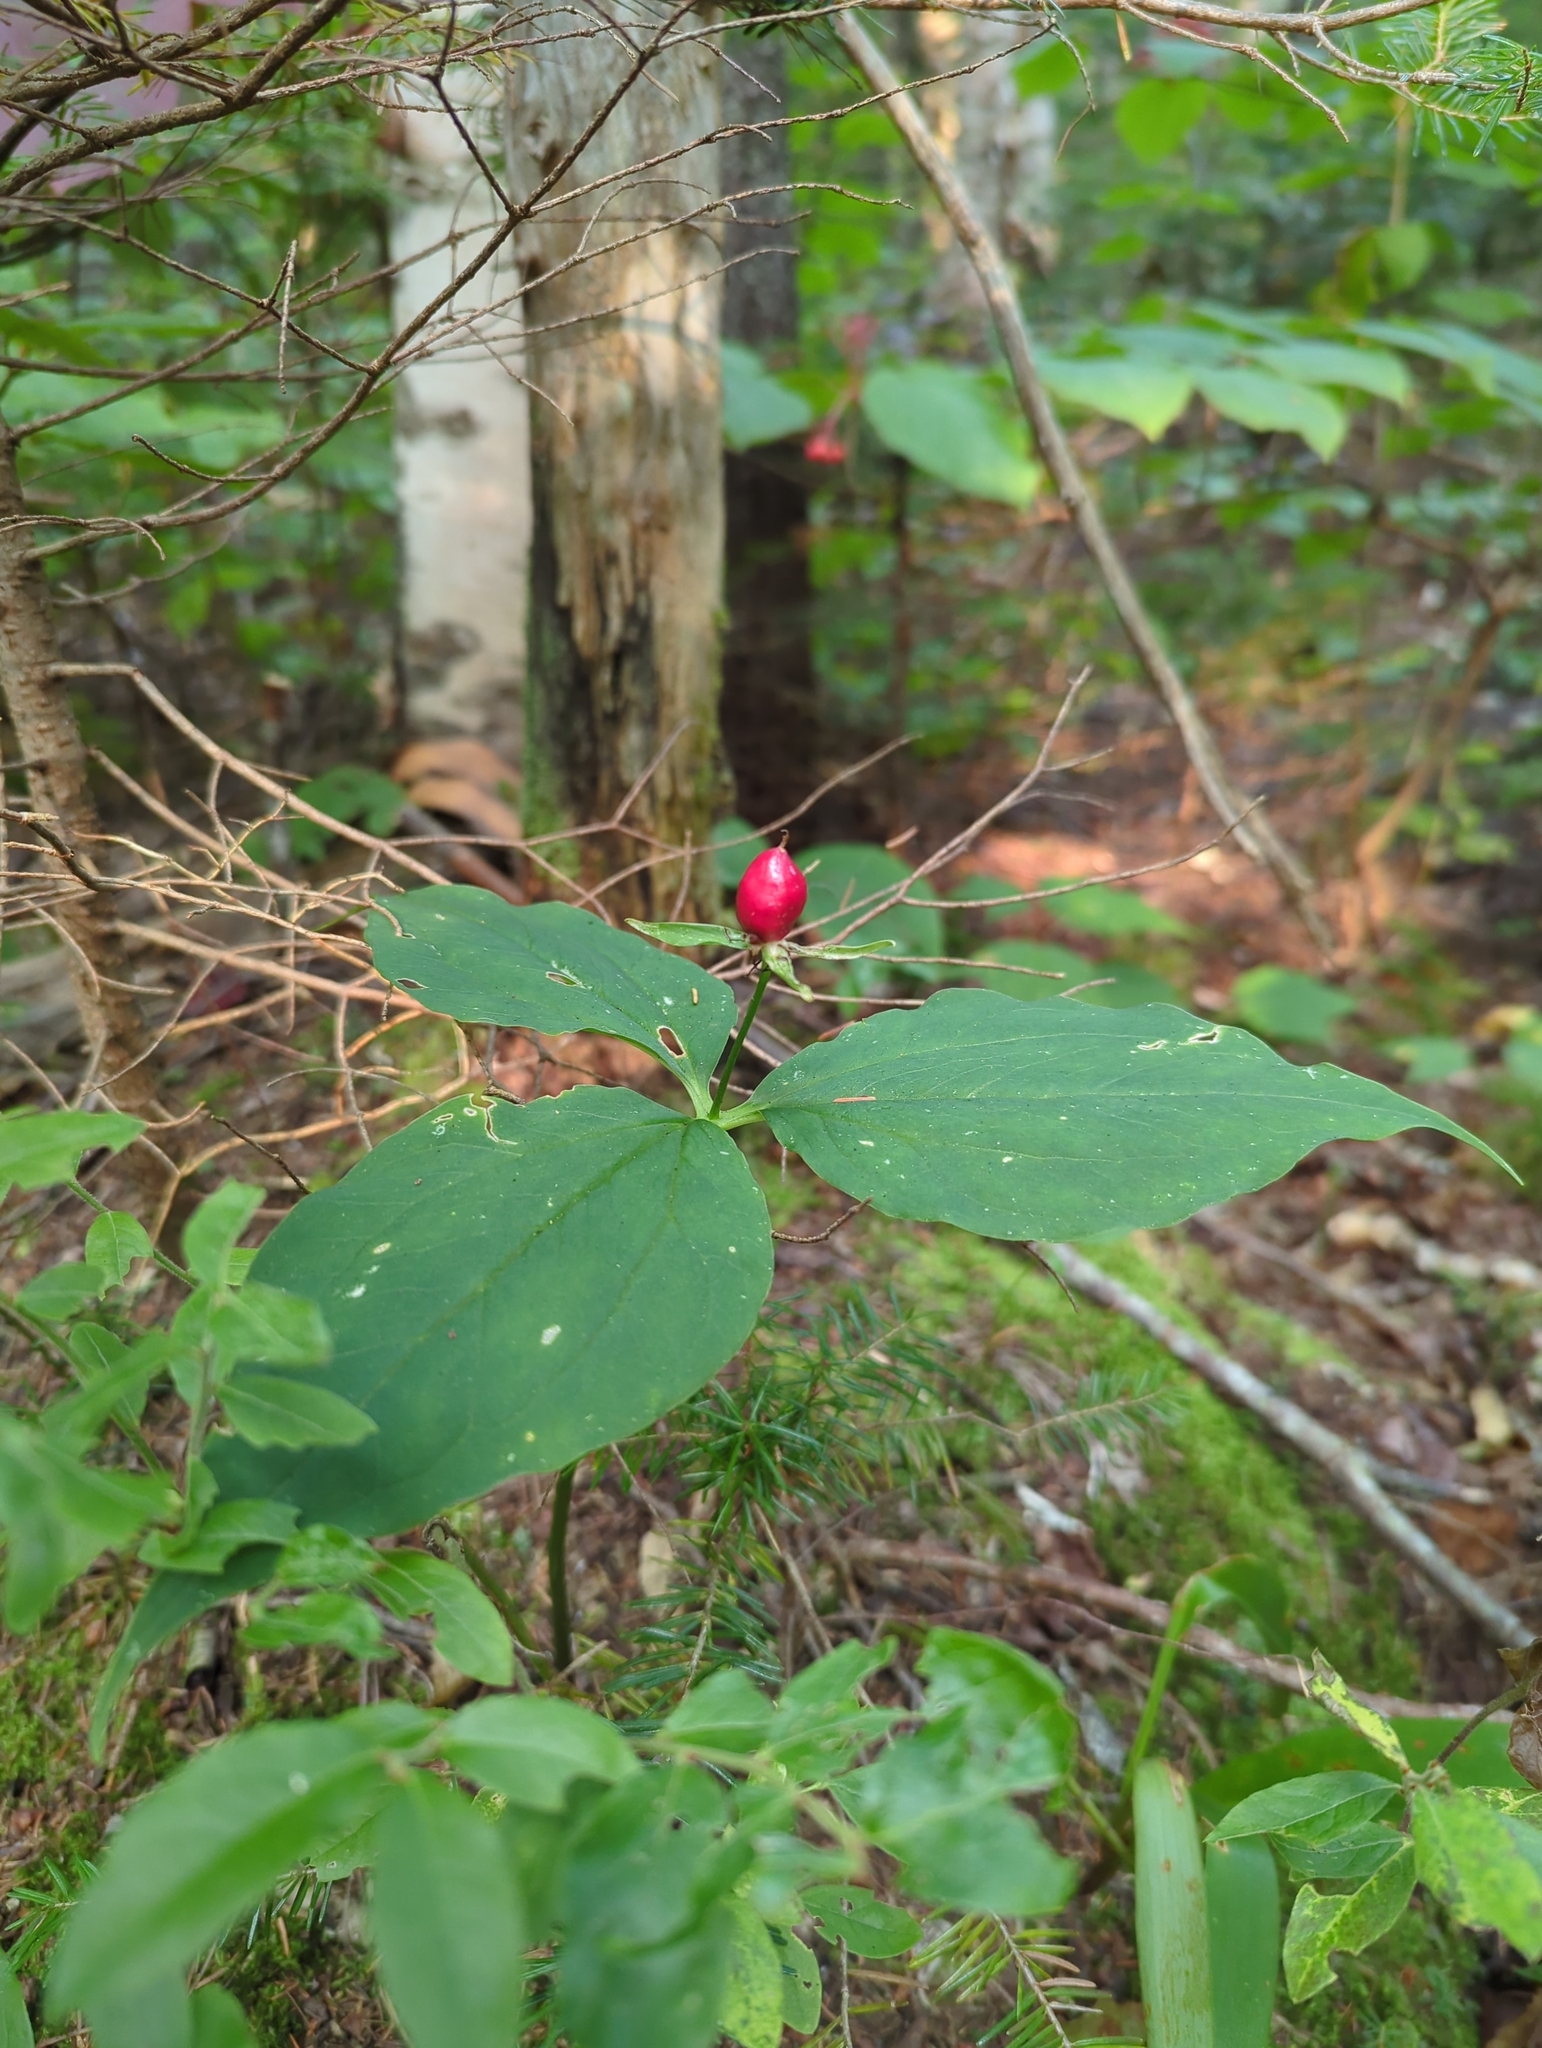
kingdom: Plantae
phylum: Tracheophyta
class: Liliopsida
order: Liliales
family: Melanthiaceae
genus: Trillium
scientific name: Trillium undulatum
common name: Paint trillium
